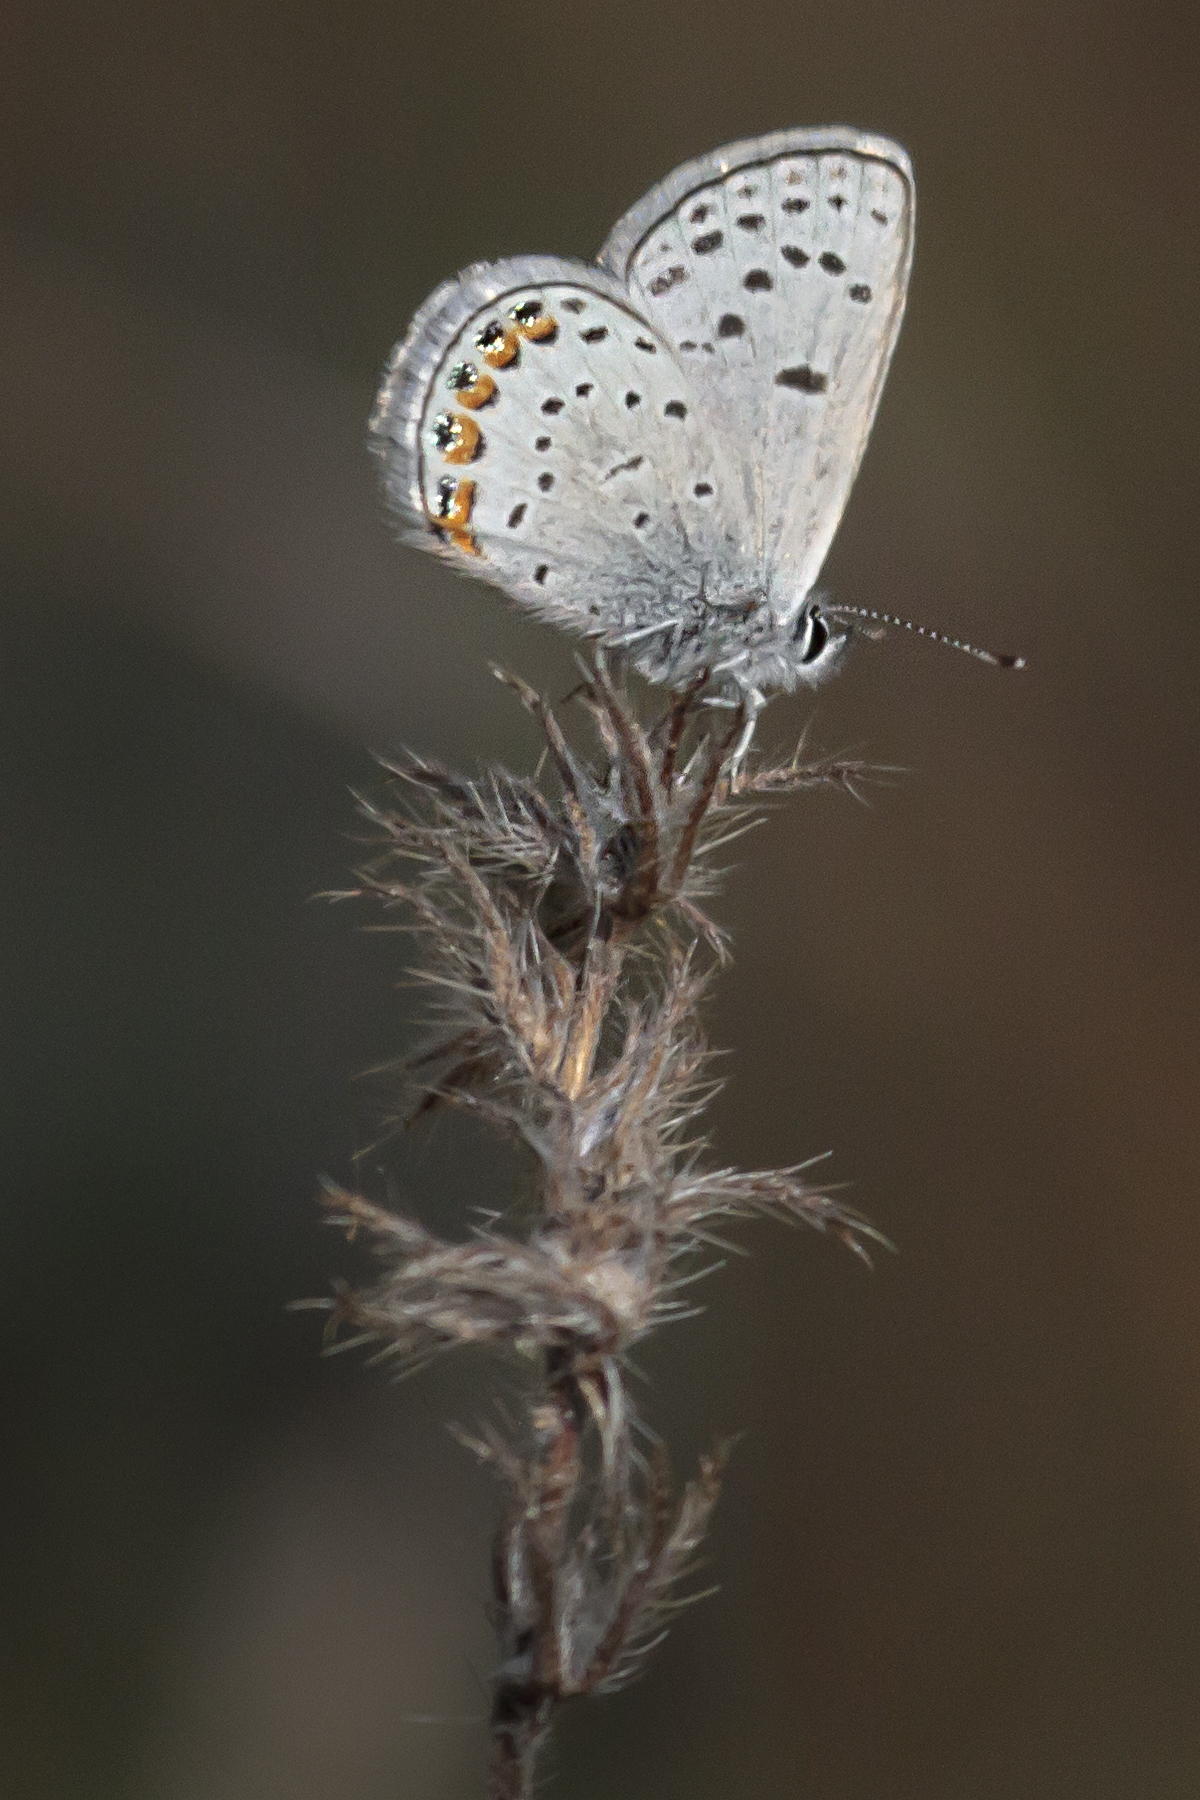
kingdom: Animalia
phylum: Arthropoda
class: Insecta
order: Lepidoptera
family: Lycaenidae
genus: Icaricia
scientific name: Icaricia acmon
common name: Acmon blue
